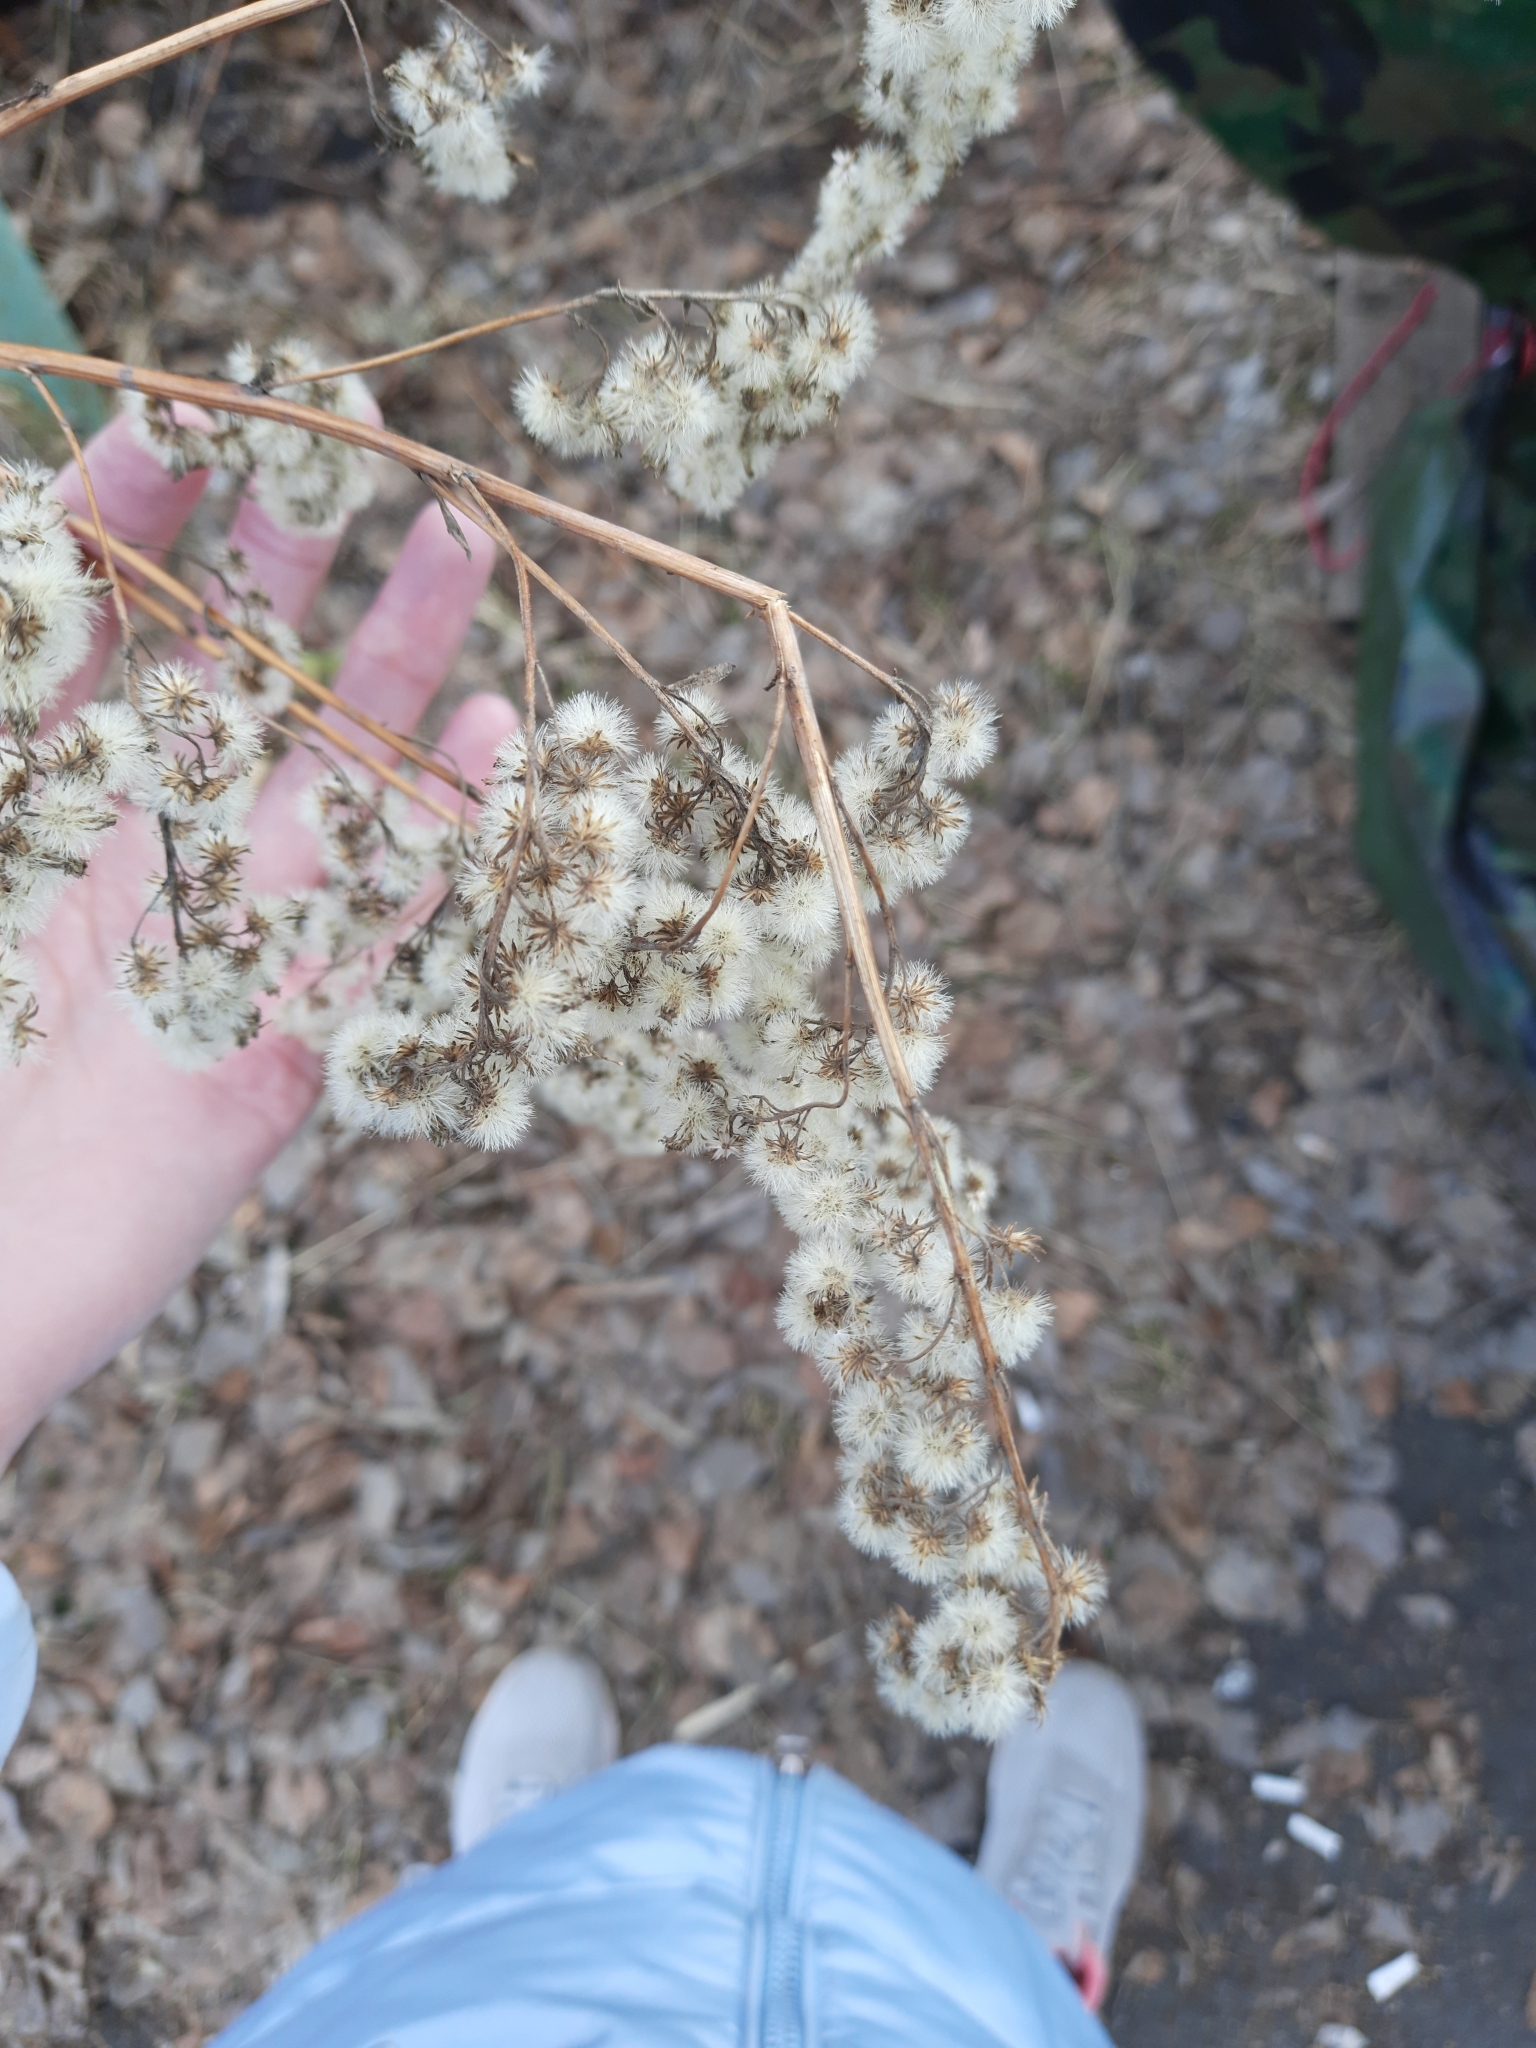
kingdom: Plantae
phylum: Tracheophyta
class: Magnoliopsida
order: Asterales
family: Asteraceae
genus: Solidago
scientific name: Solidago virgaurea
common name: Goldenrod
